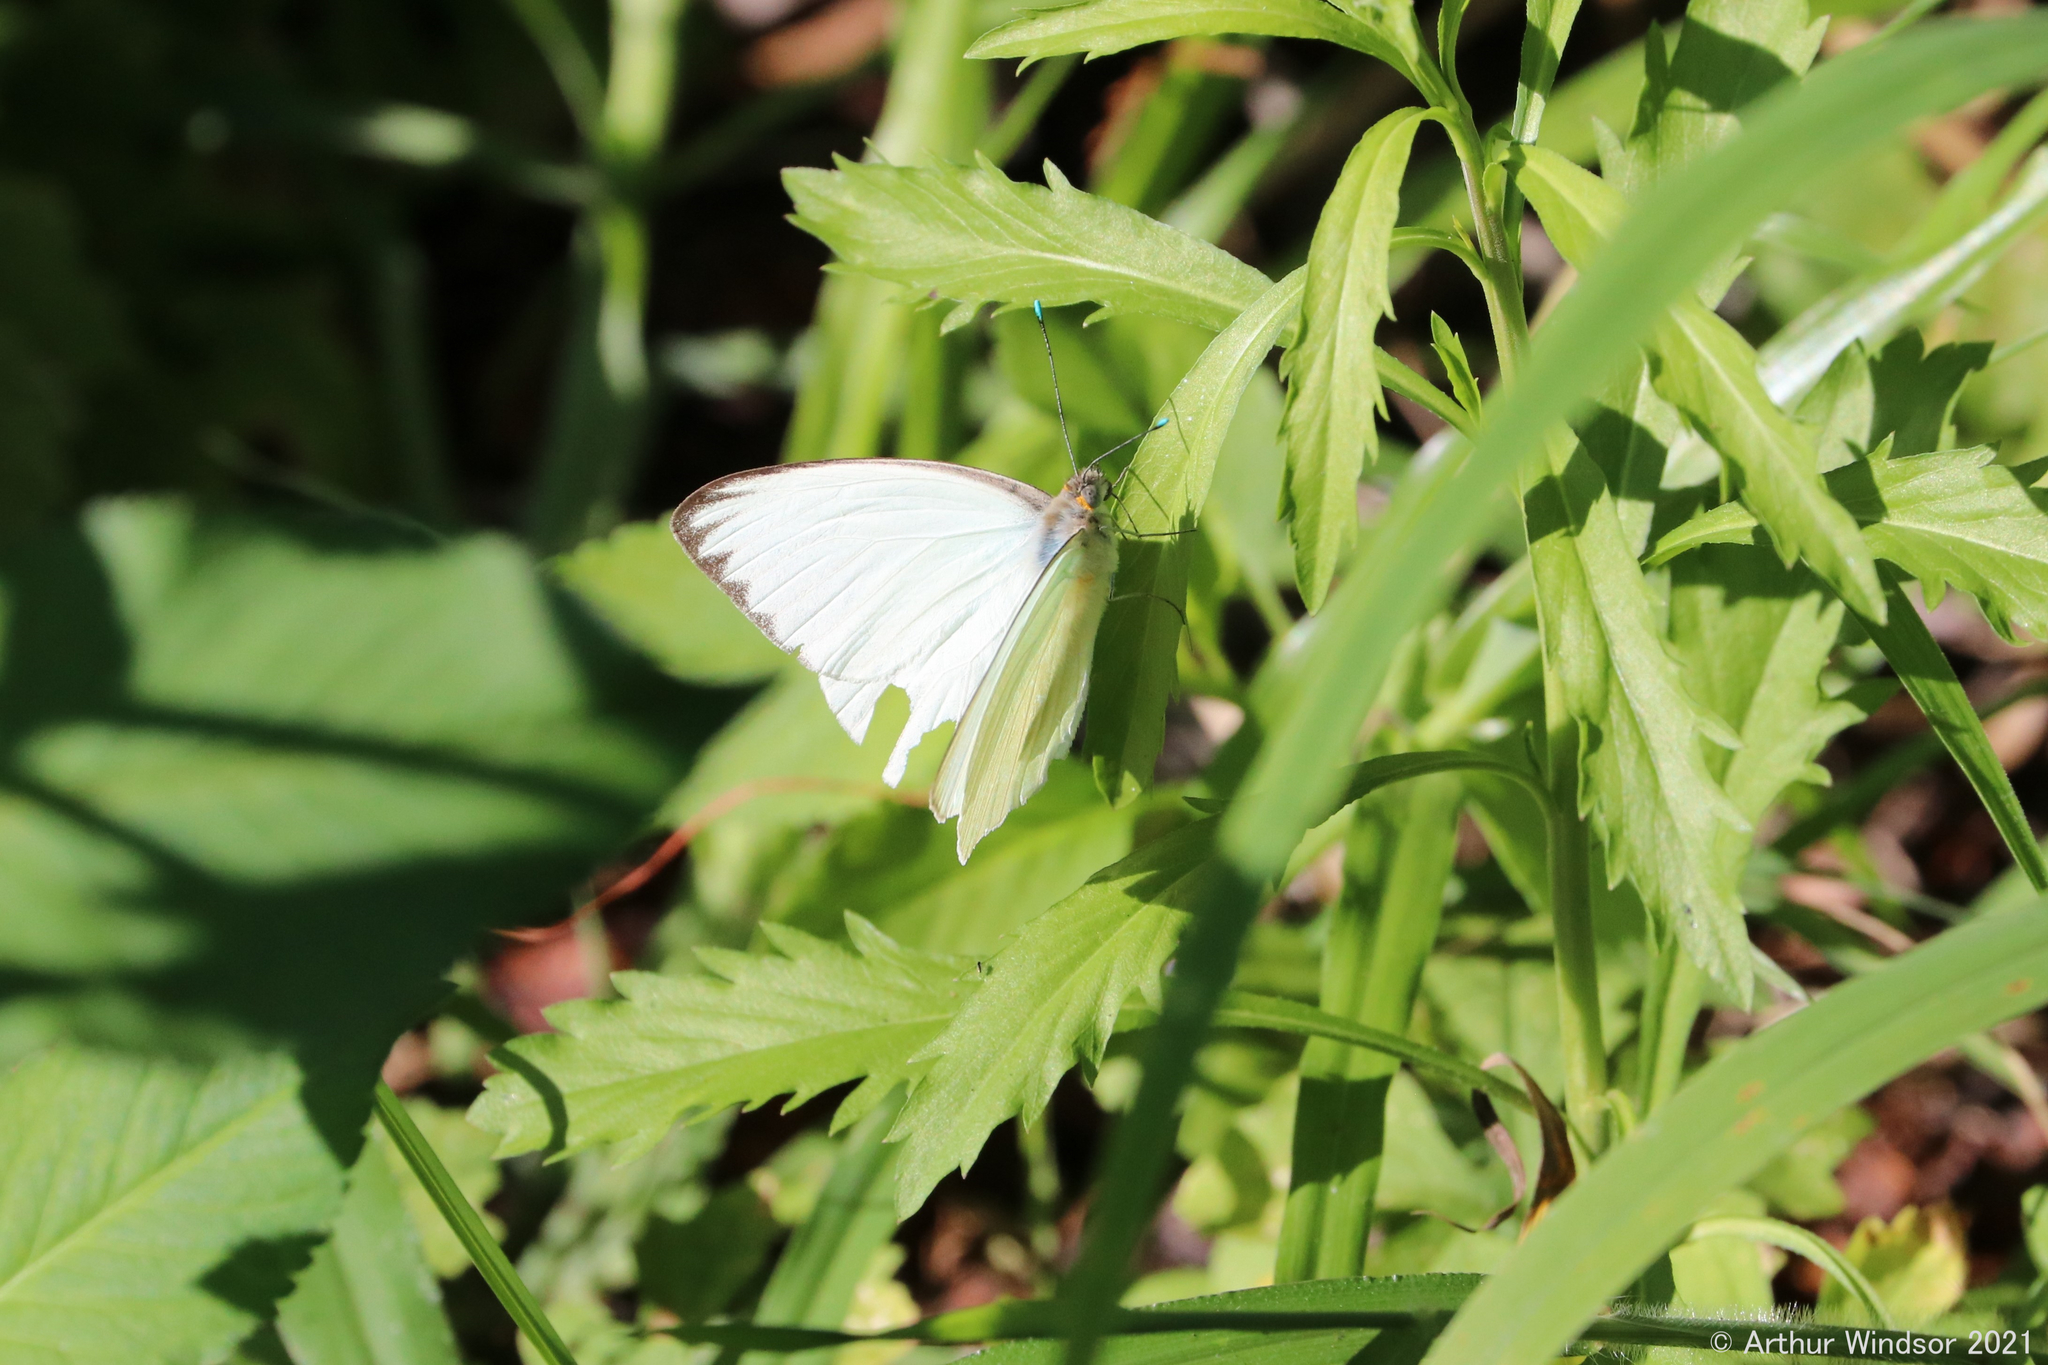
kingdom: Animalia
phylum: Arthropoda
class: Insecta
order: Lepidoptera
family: Pieridae
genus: Ascia
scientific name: Ascia monuste
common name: Great southern white
